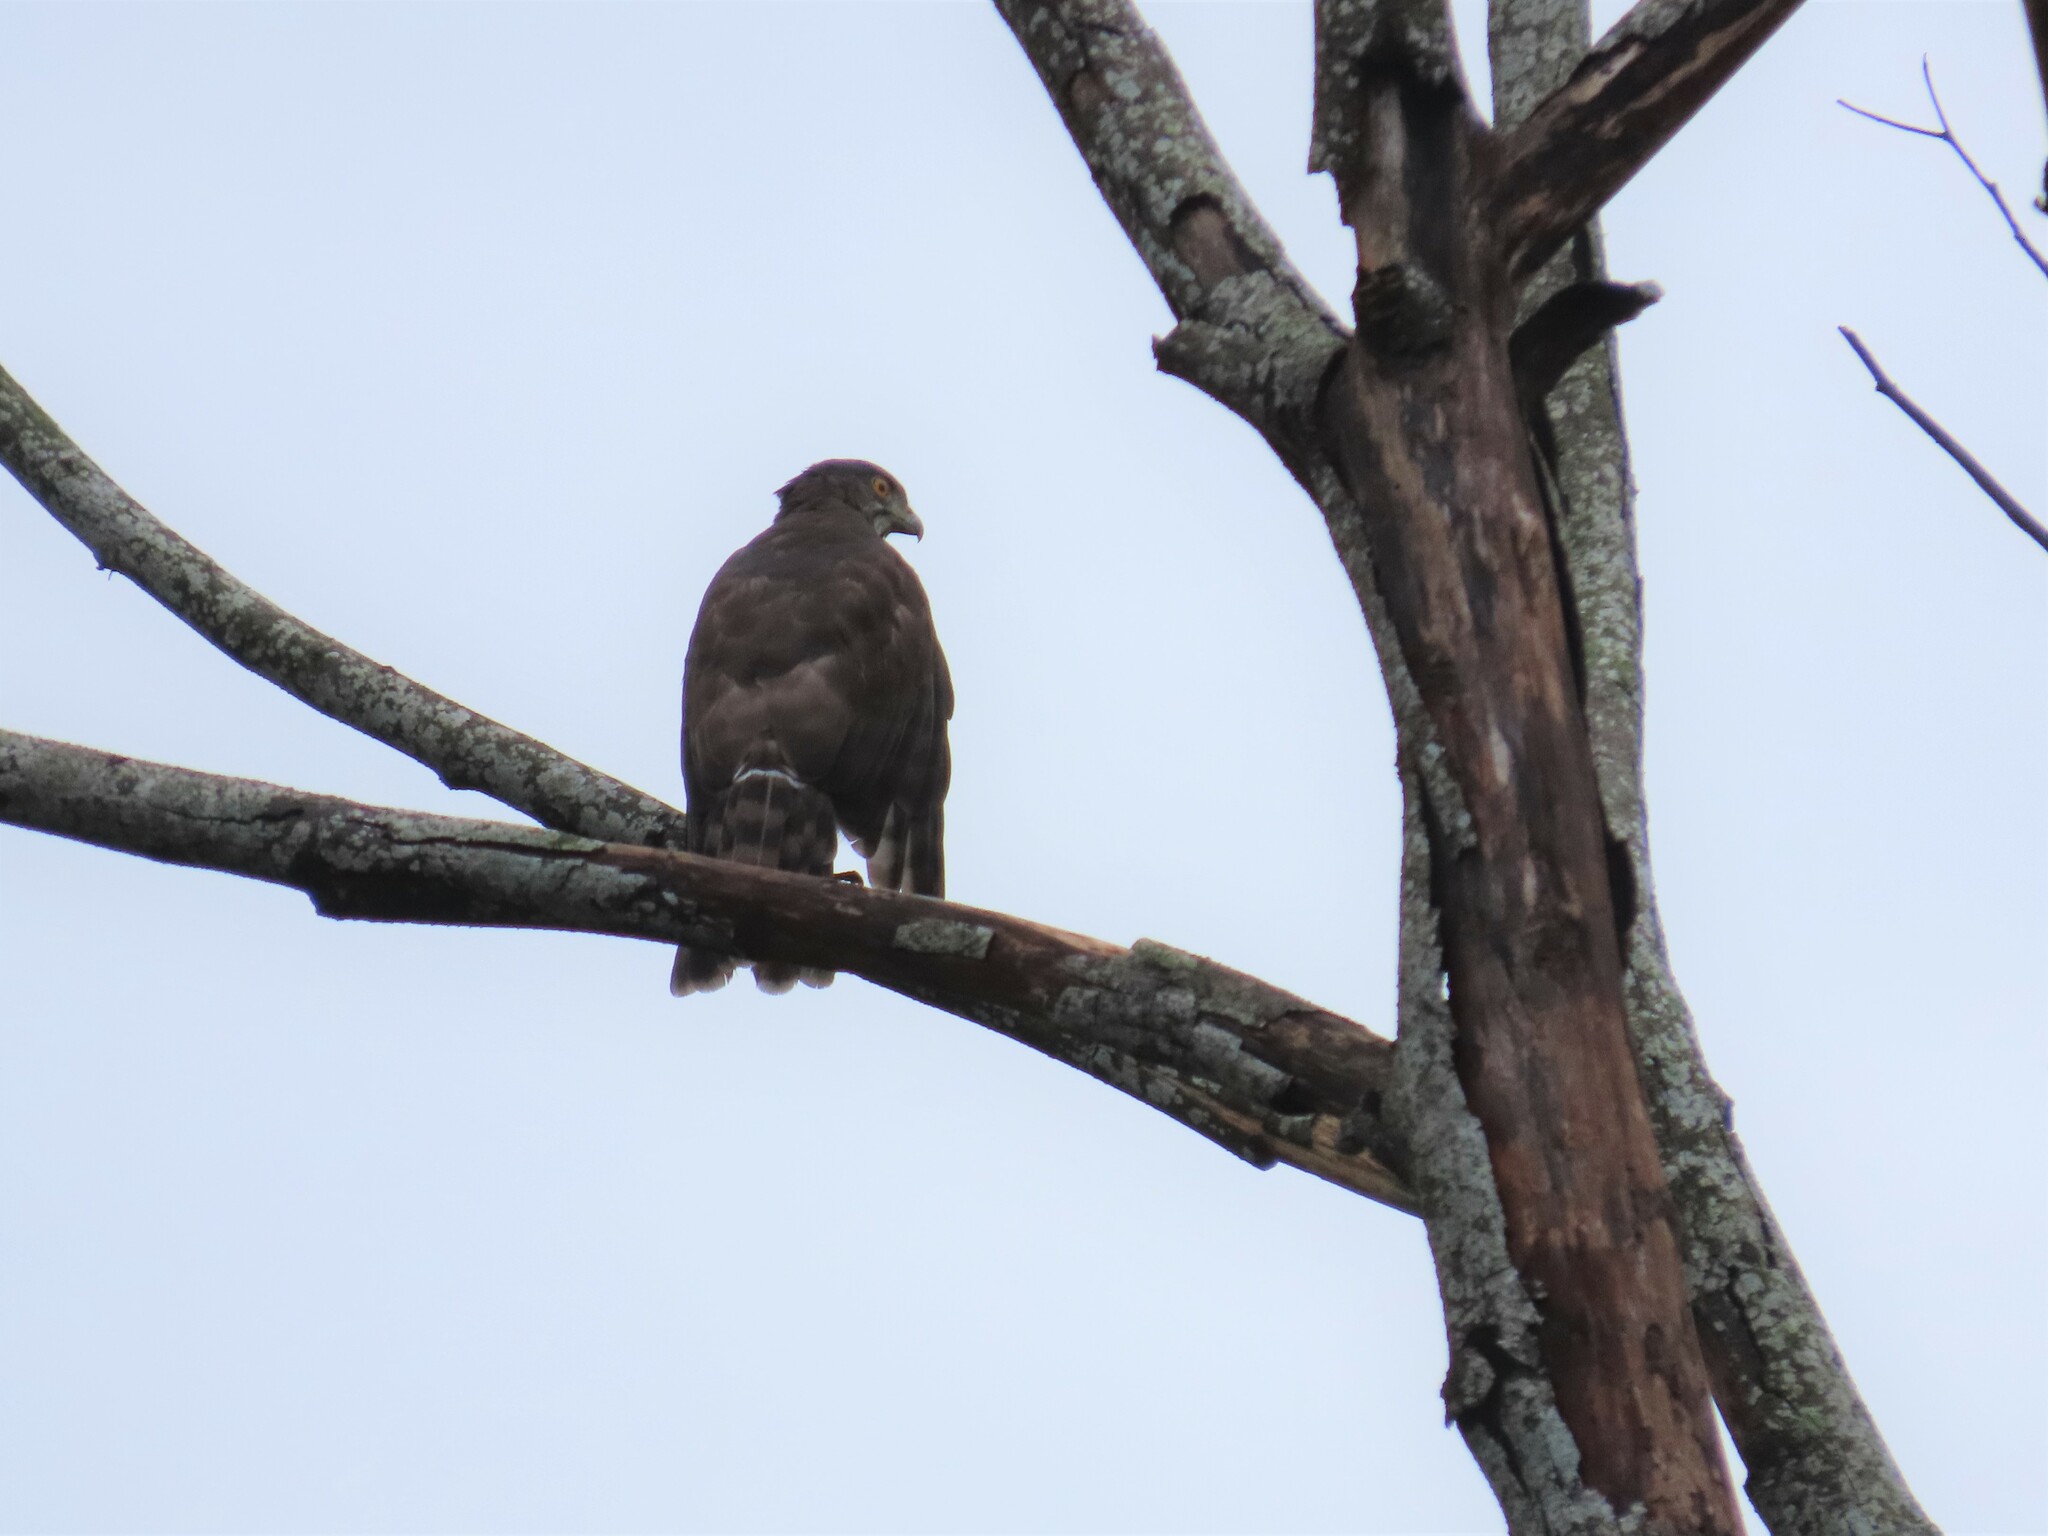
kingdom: Animalia
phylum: Chordata
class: Aves
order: Accipitriformes
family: Accipitridae
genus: Accipiter
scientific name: Accipiter trivirgatus
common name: Crested goshawk
